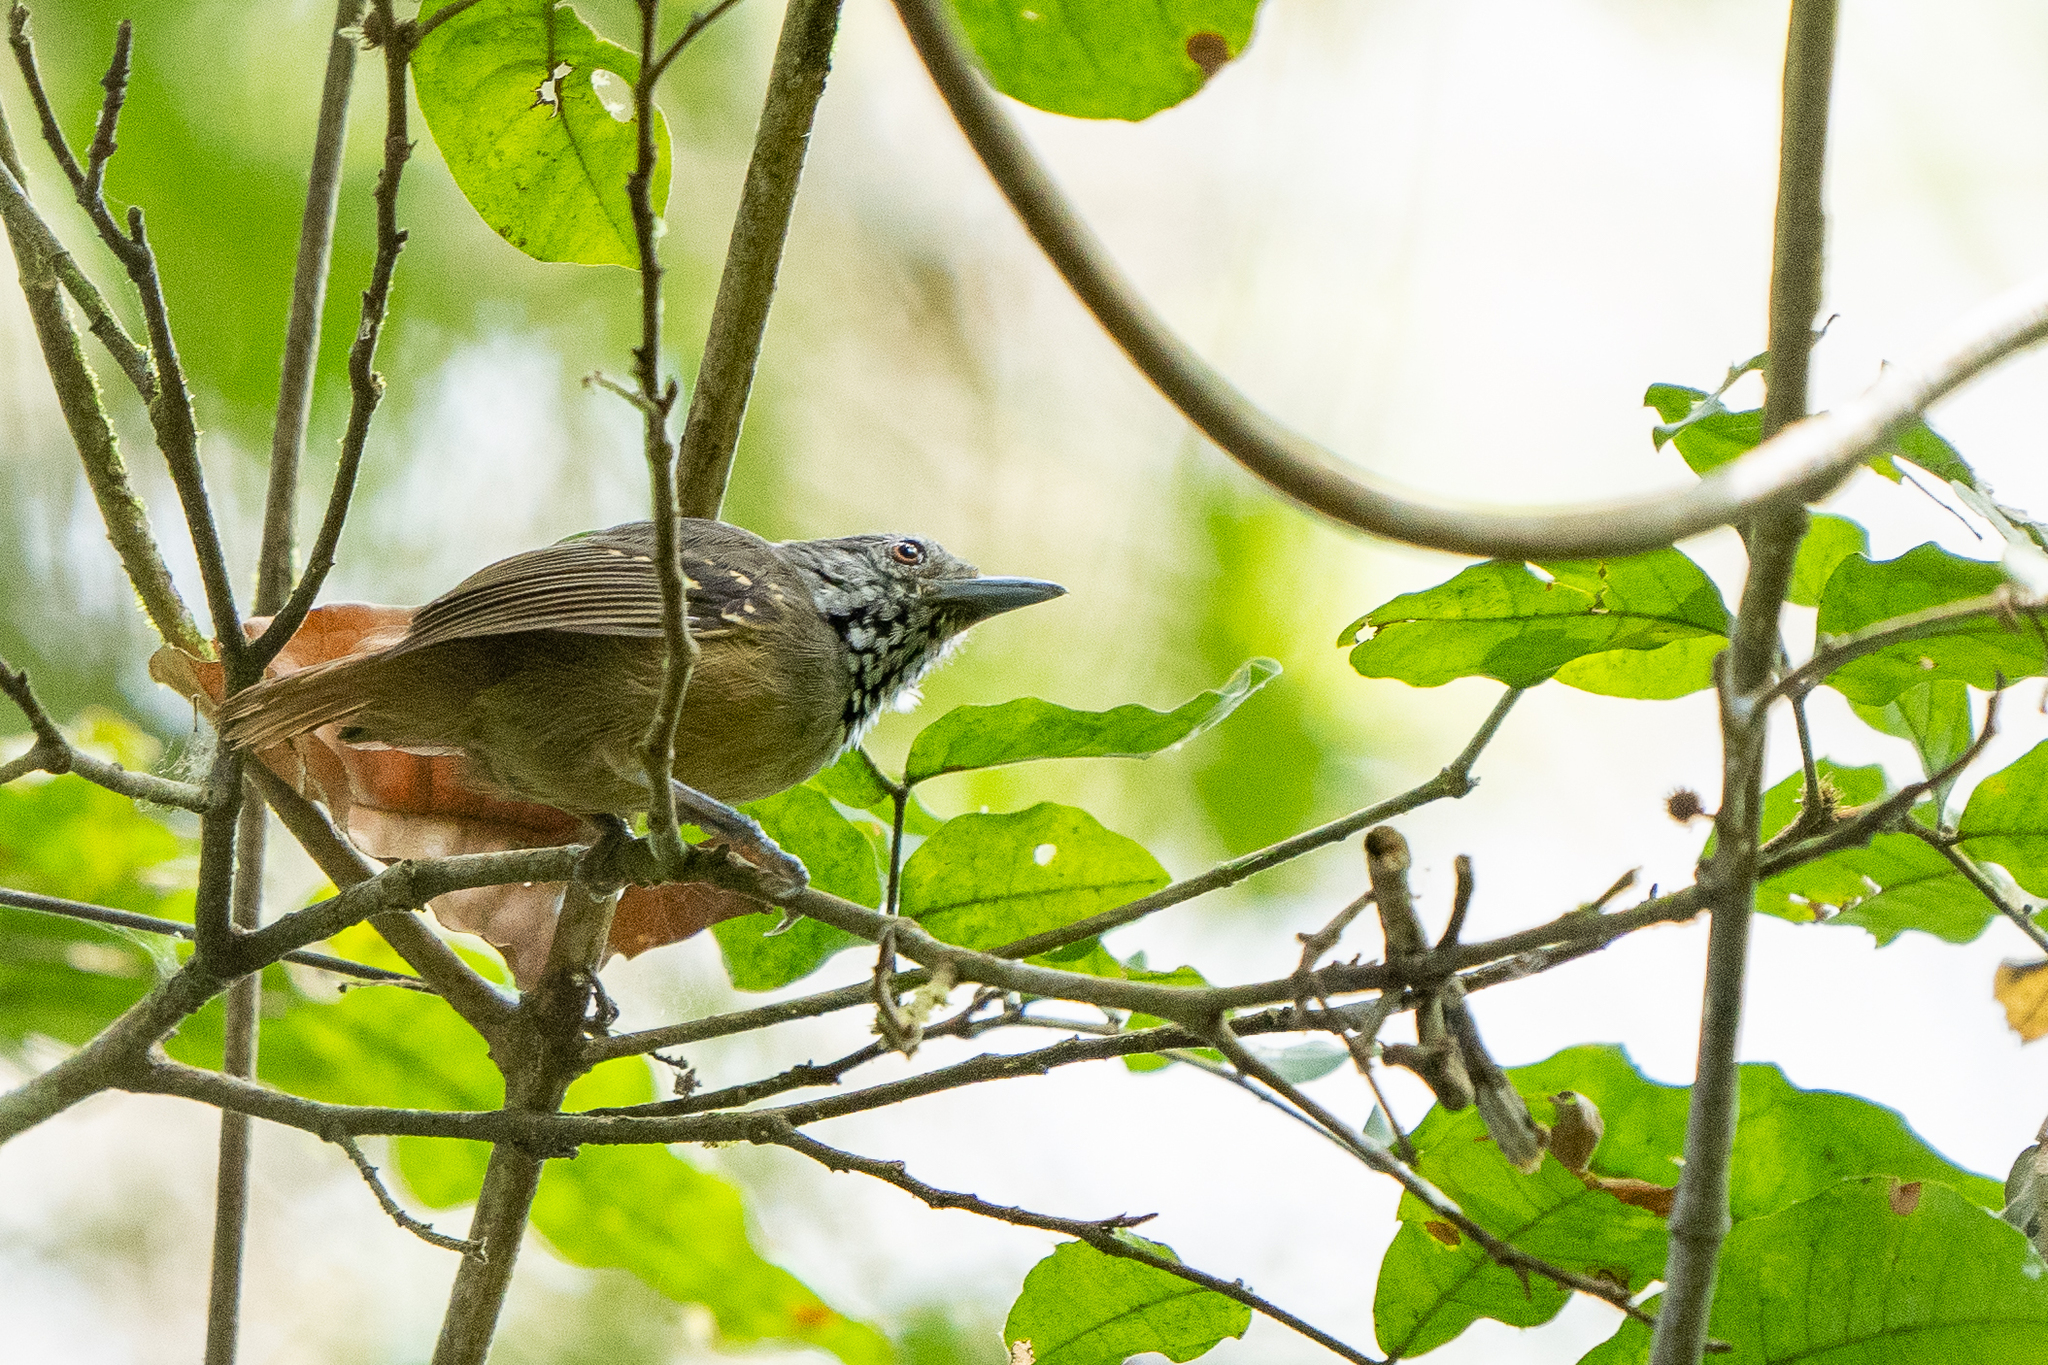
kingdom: Animalia
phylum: Chordata
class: Aves
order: Passeriformes
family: Thamnophilidae
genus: Epinecrophylla
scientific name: Epinecrophylla fulviventris
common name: Checker-throated antwren
